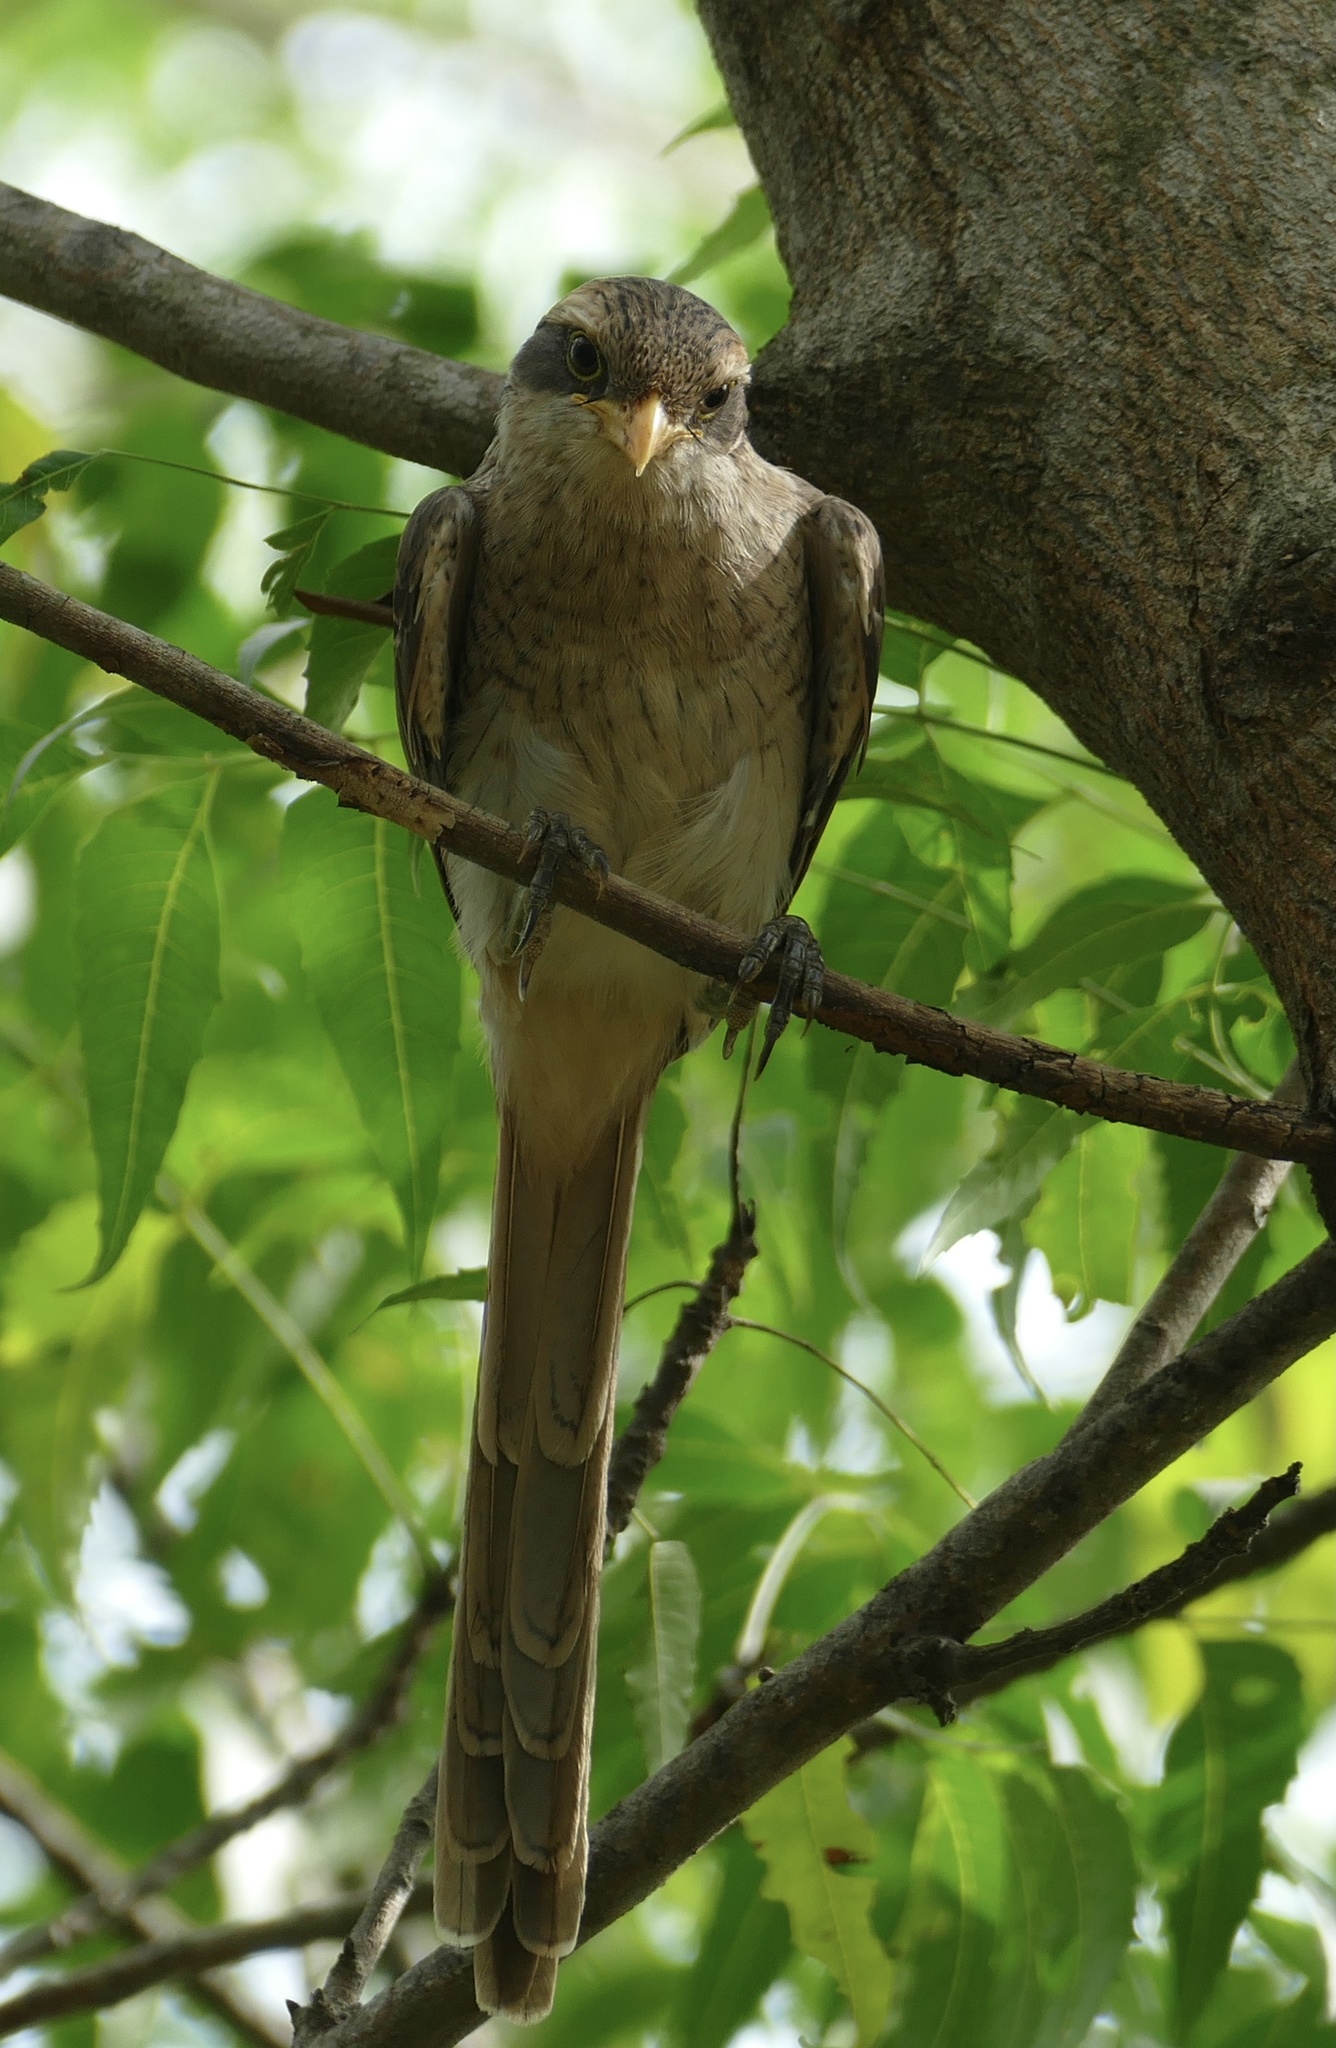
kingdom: Animalia
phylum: Chordata
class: Aves
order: Passeriformes
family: Laniidae
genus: Corvinella
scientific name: Corvinella corvina
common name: Yellow-billed shrike
